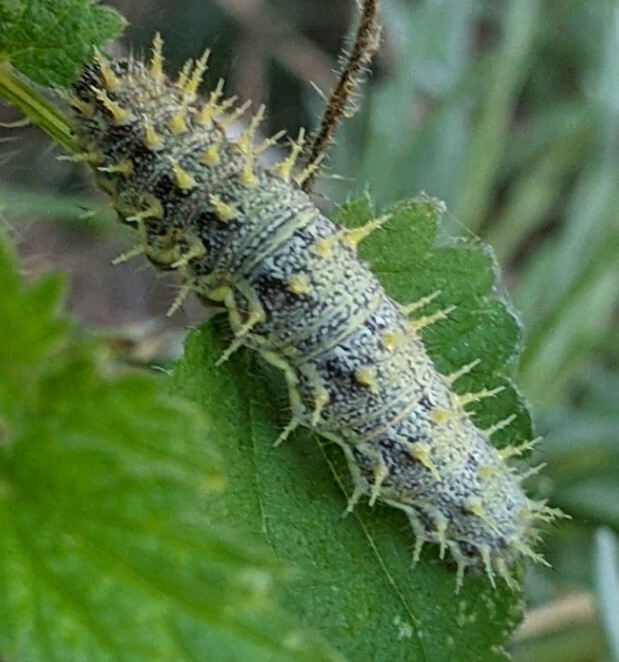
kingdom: Animalia
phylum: Arthropoda
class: Insecta
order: Lepidoptera
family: Nymphalidae
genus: Vanessa
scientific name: Vanessa atalanta
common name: Red admiral
